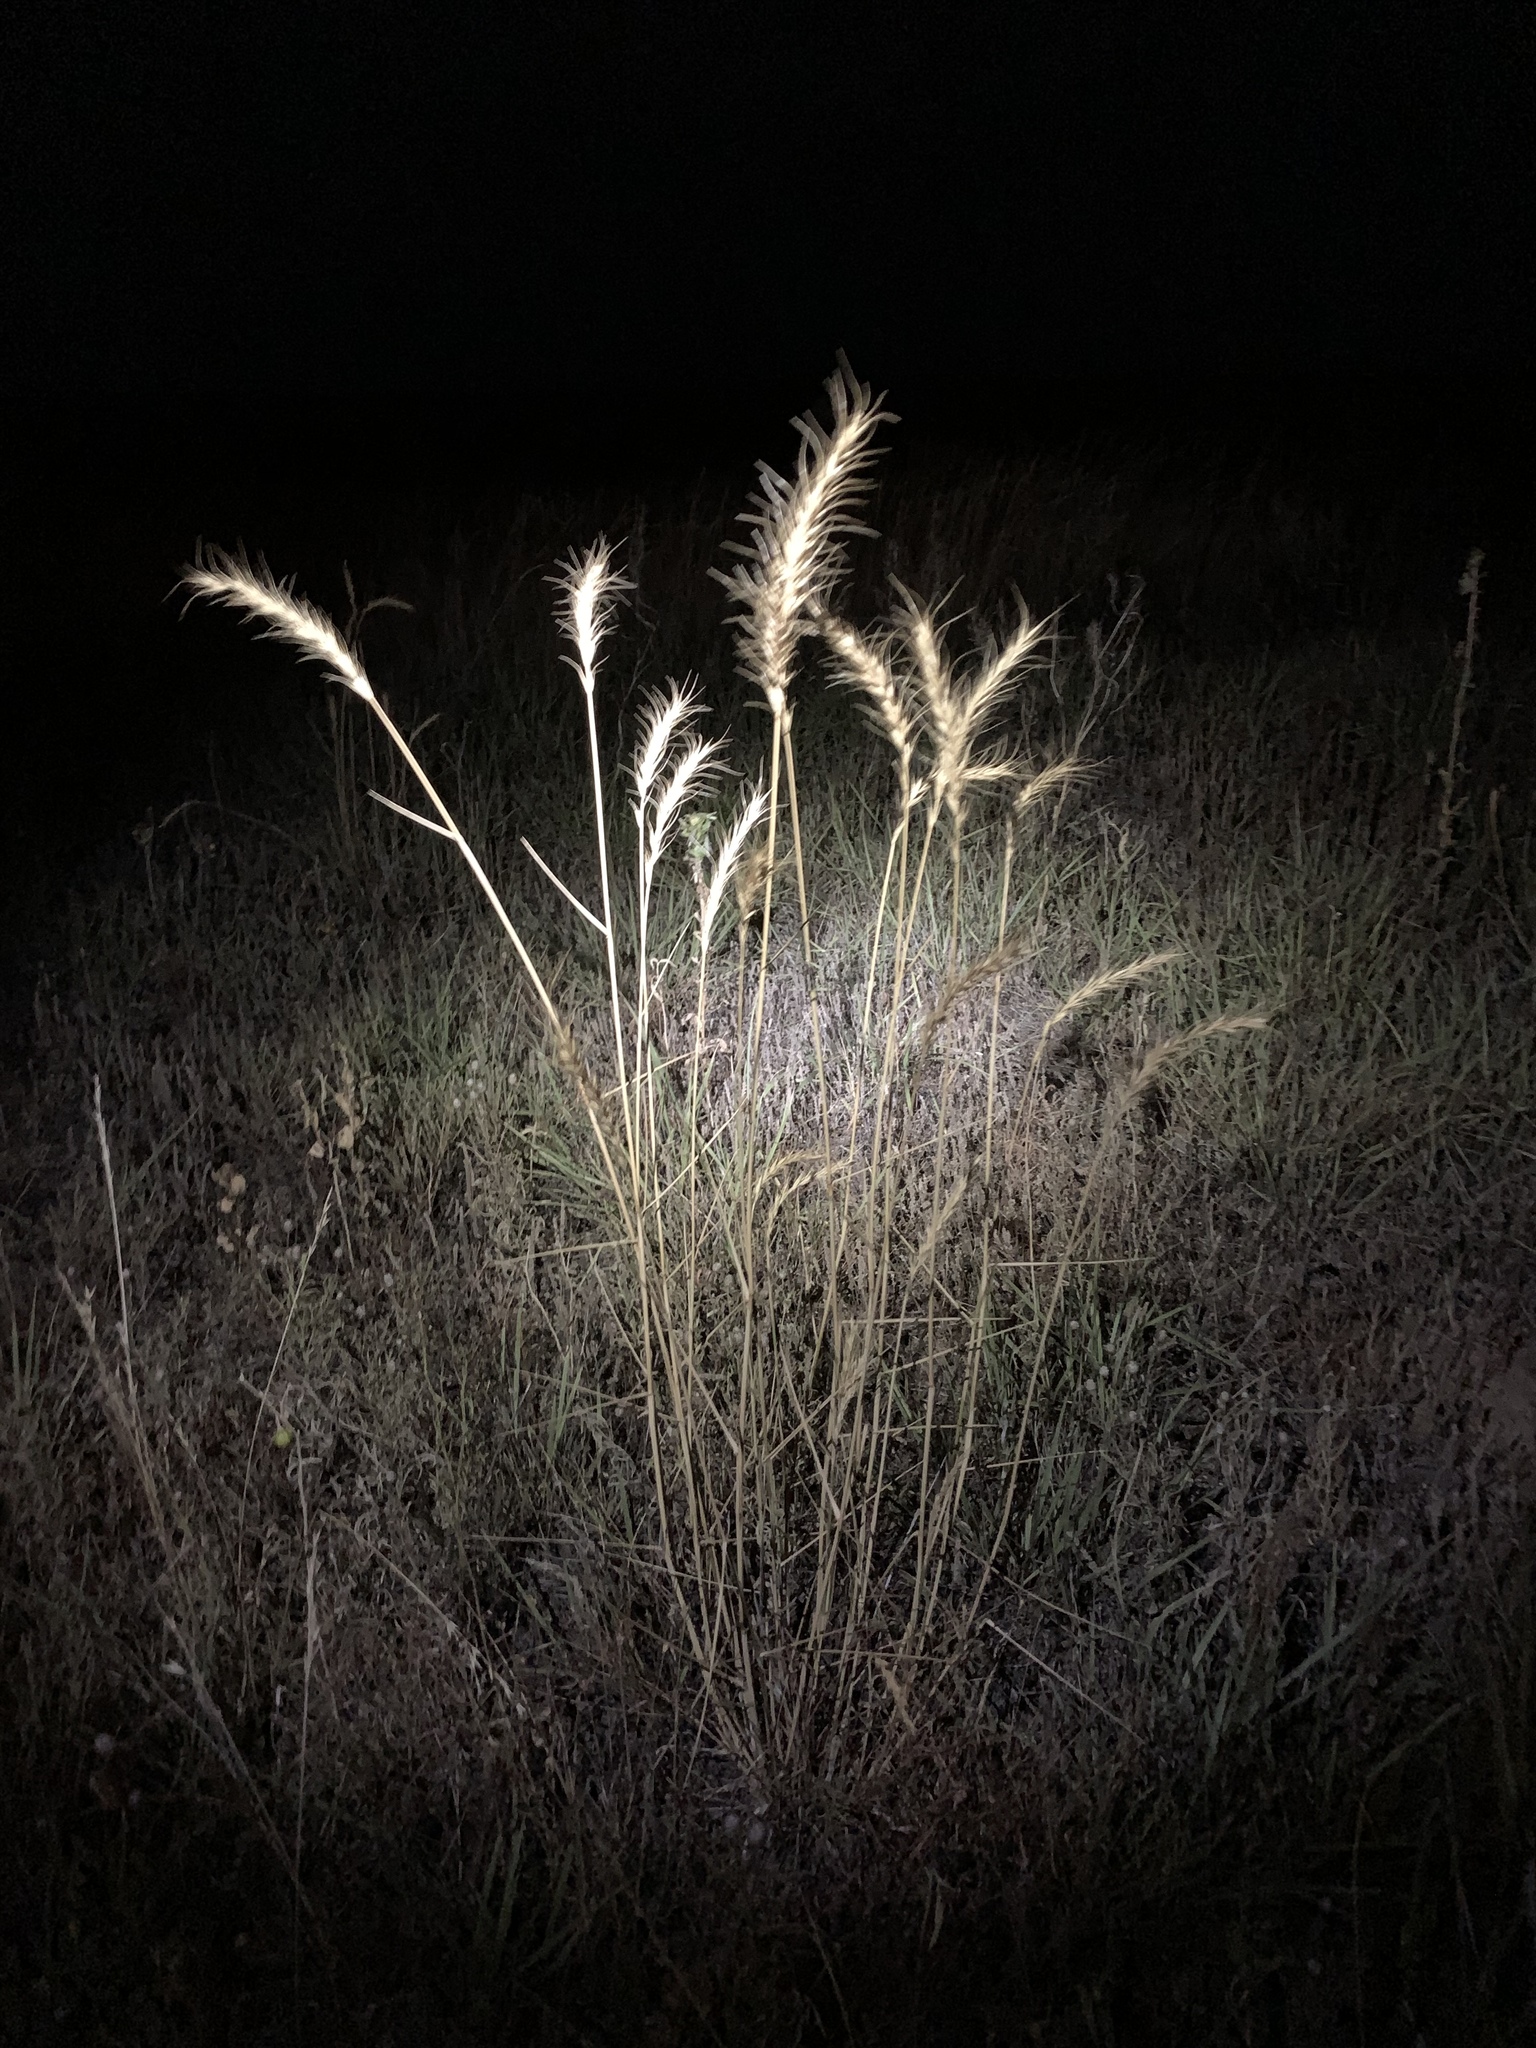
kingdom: Plantae
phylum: Tracheophyta
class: Liliopsida
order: Poales
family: Poaceae
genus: Elymus
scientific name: Elymus canadensis
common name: Canada wild rye
